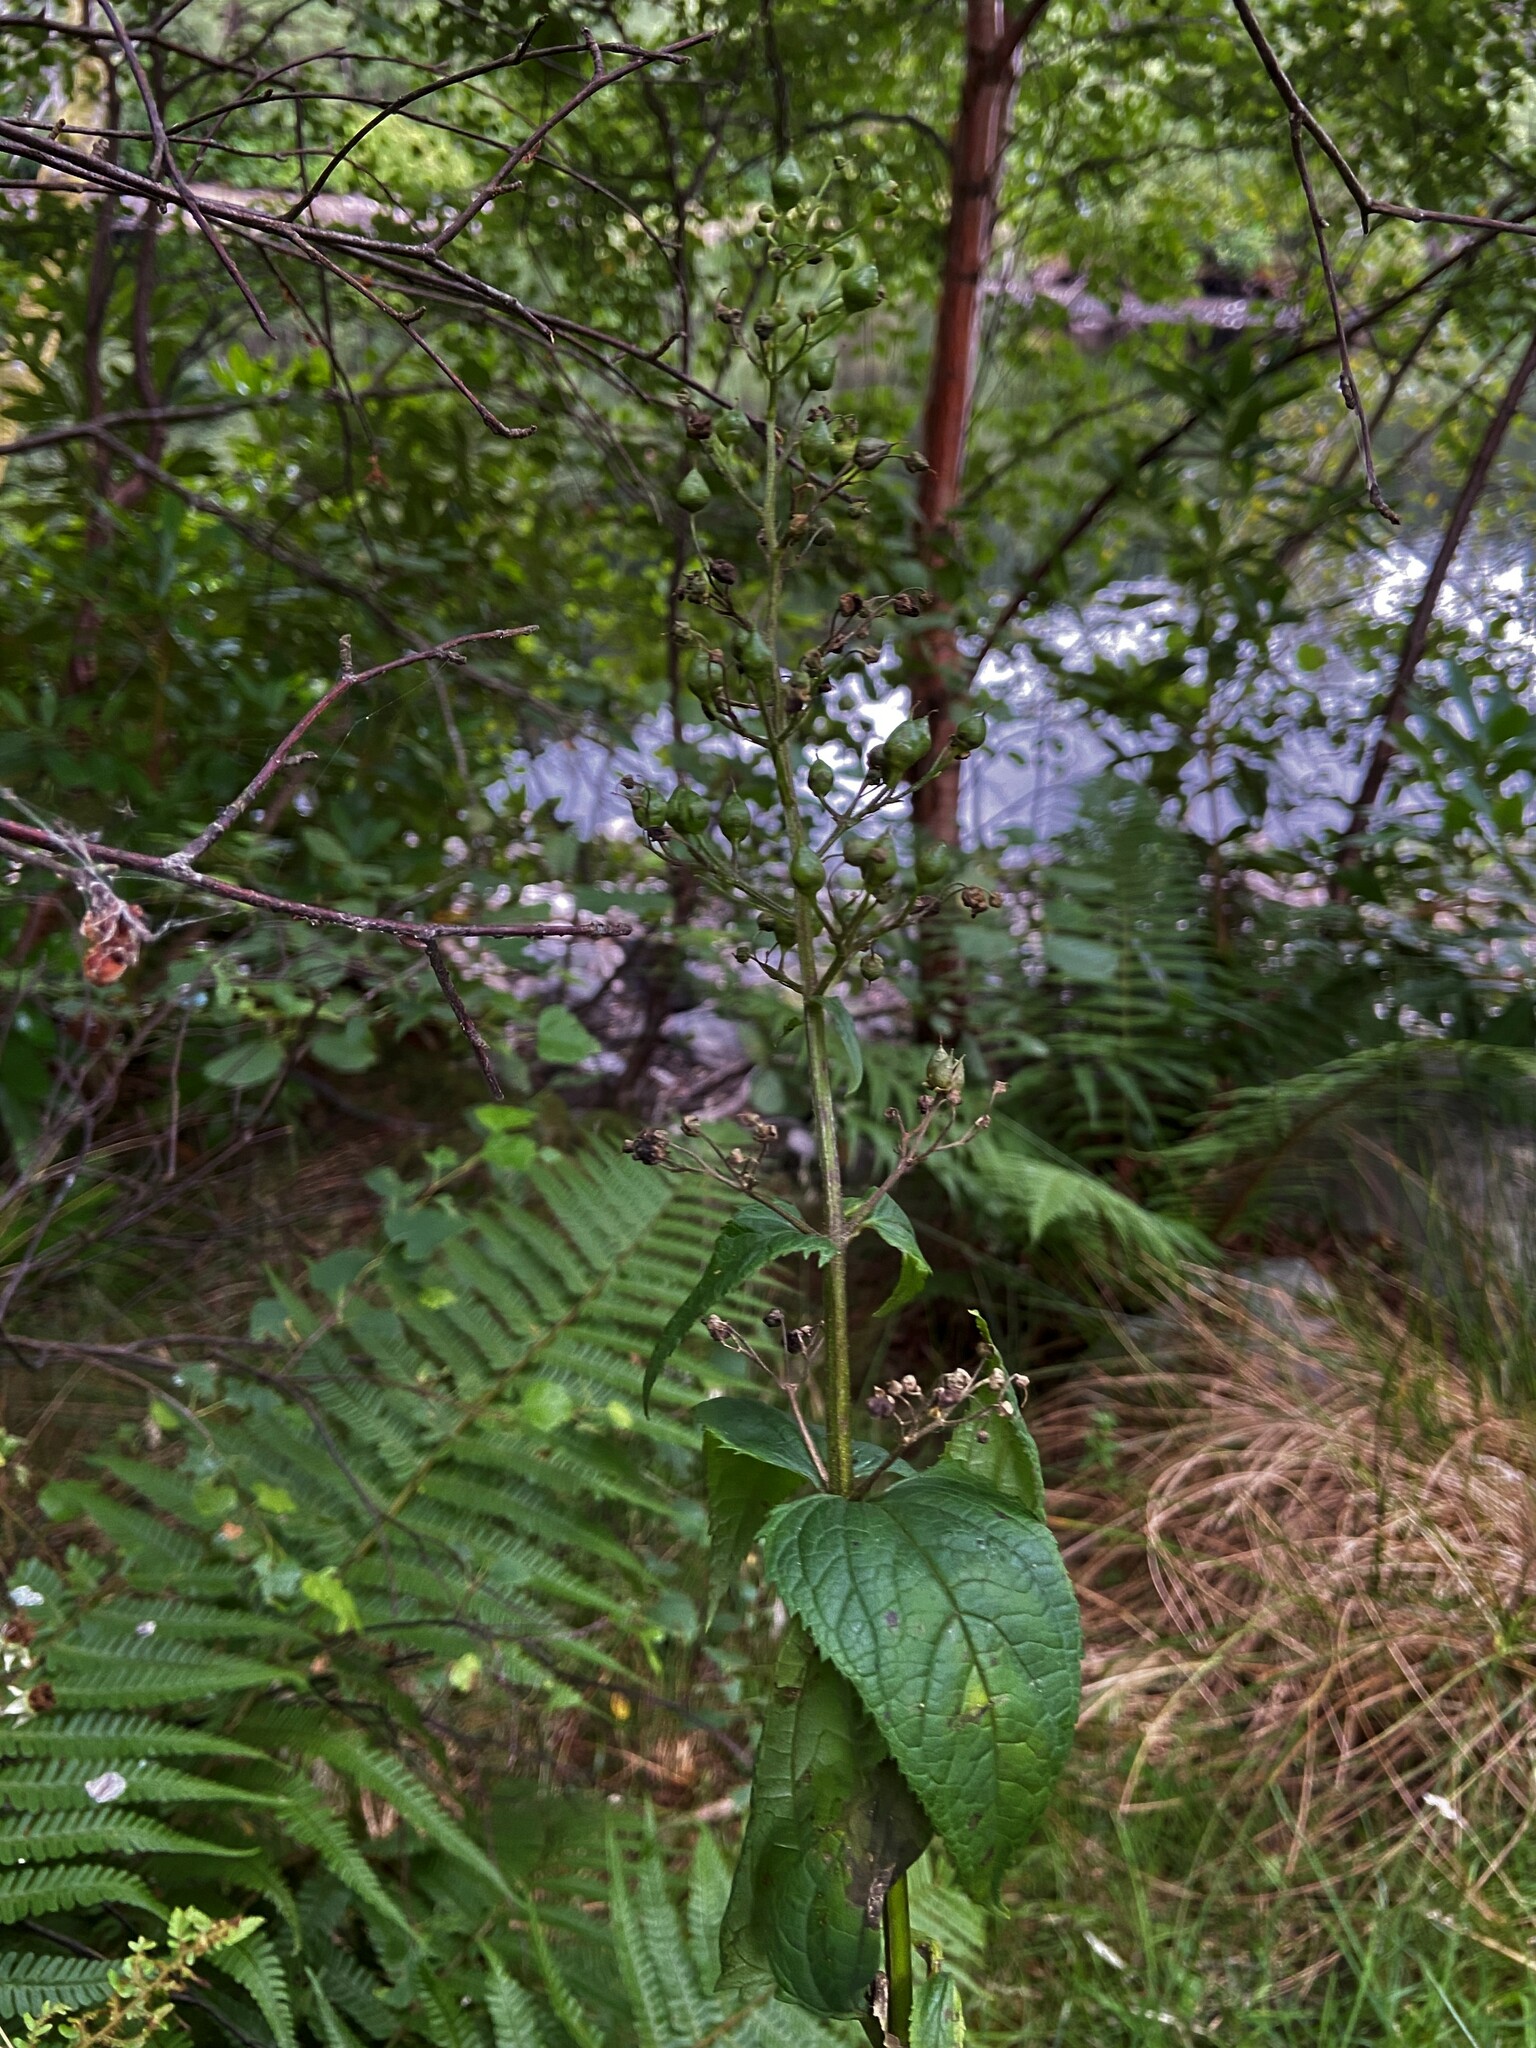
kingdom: Plantae
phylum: Tracheophyta
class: Magnoliopsida
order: Lamiales
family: Scrophulariaceae
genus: Scrophularia
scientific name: Scrophularia nodosa
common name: Common figwort
